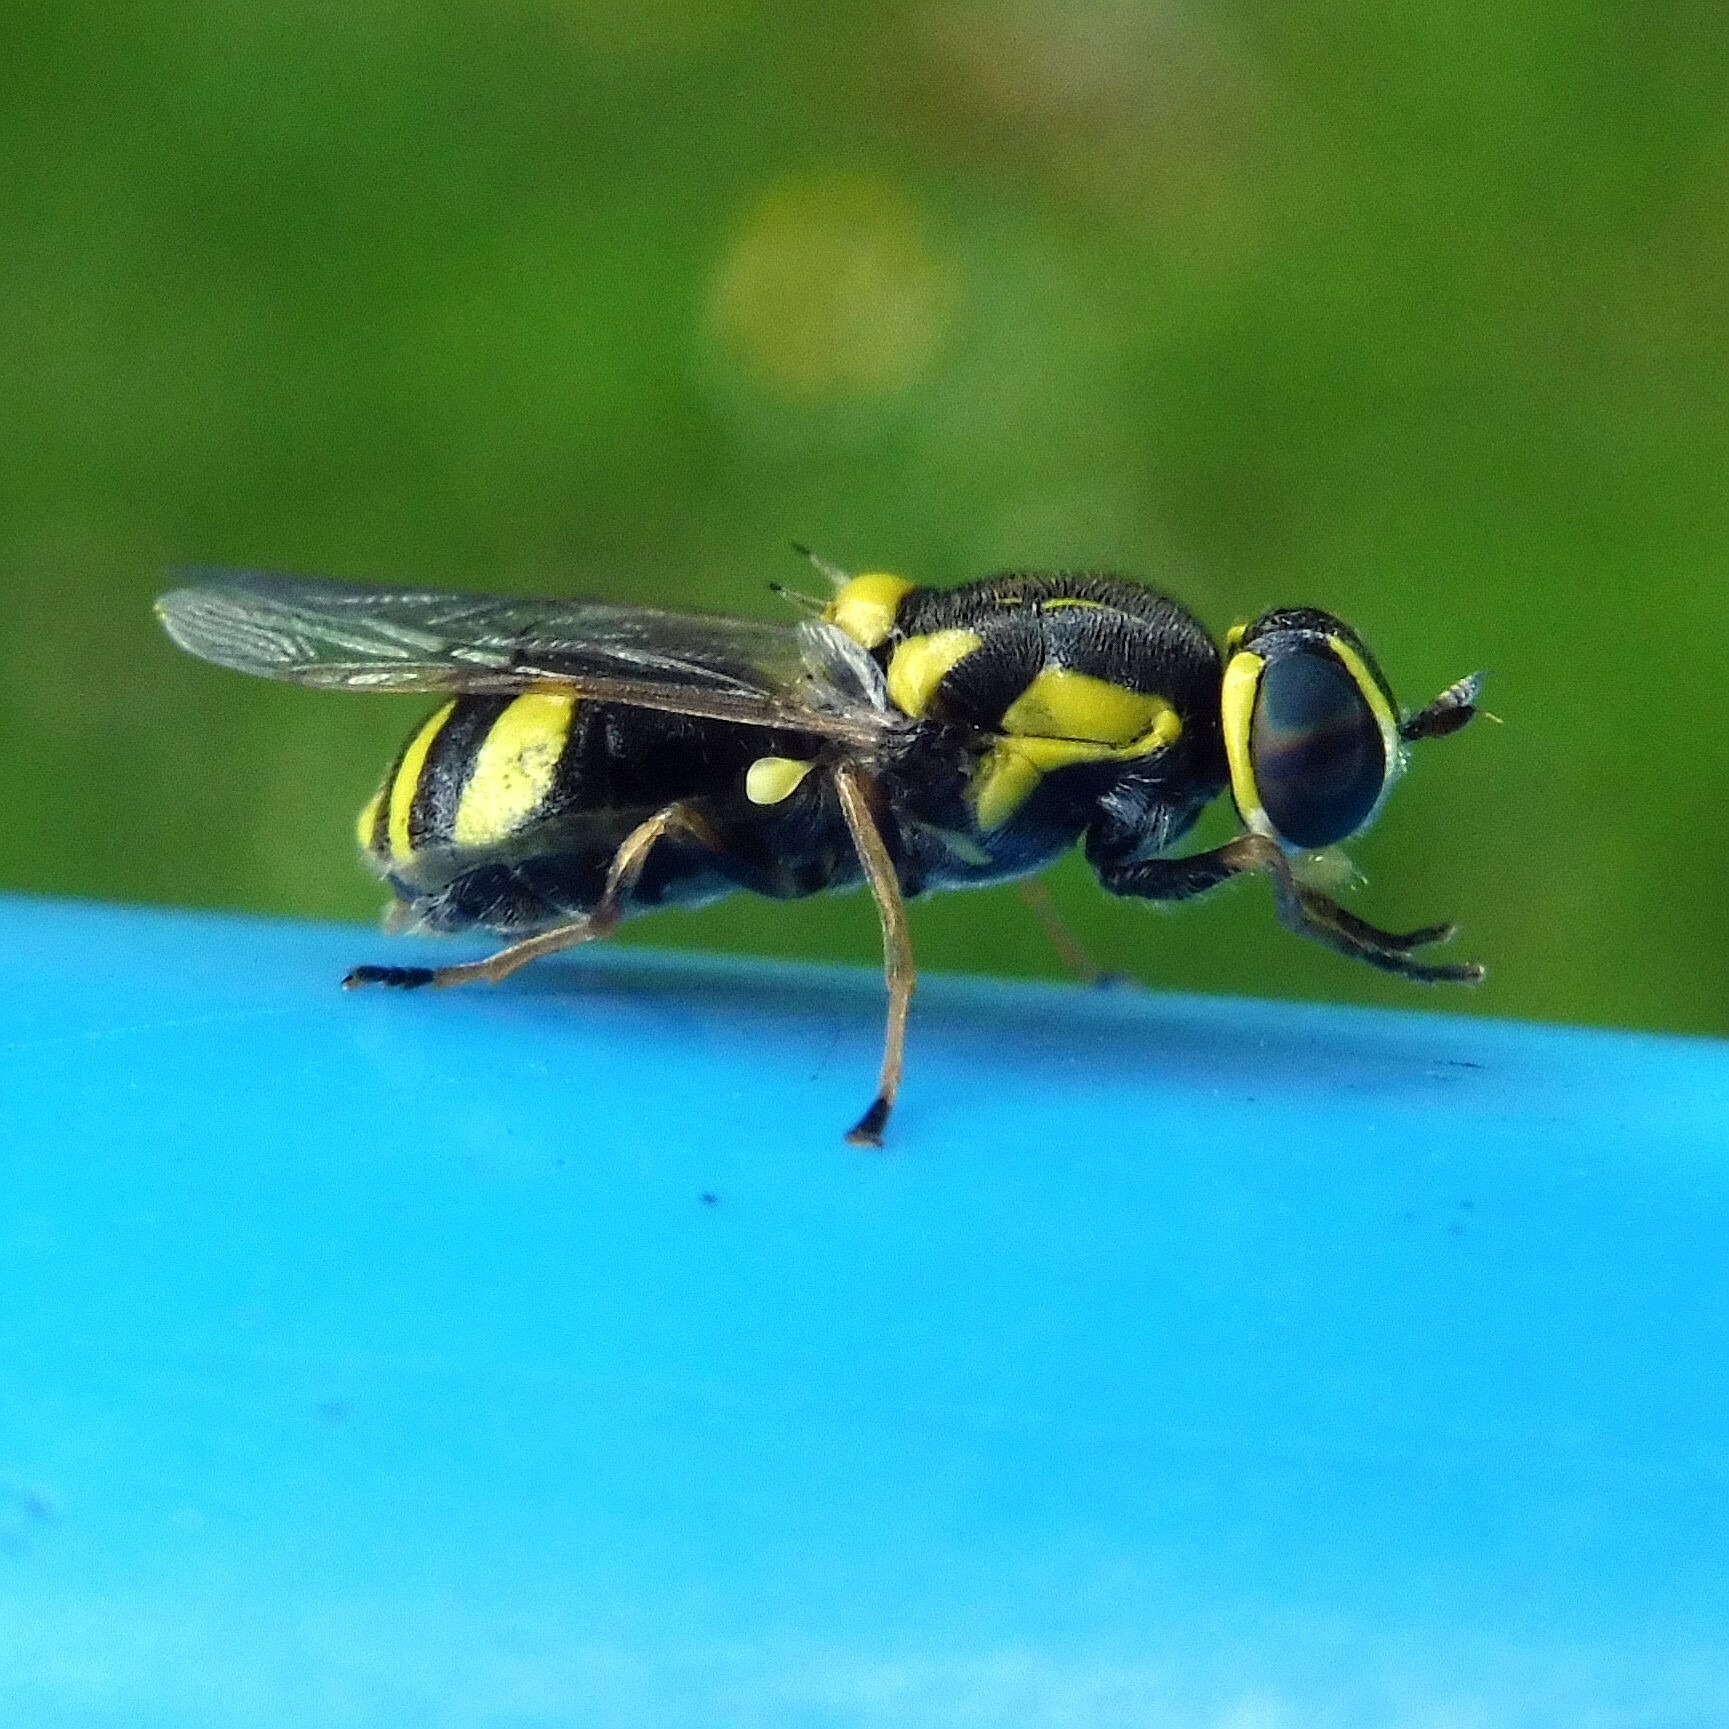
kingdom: Animalia
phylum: Arthropoda
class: Insecta
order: Diptera
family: Stratiomyidae
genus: Oxycera
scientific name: Oxycera rara
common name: Four-barred major
